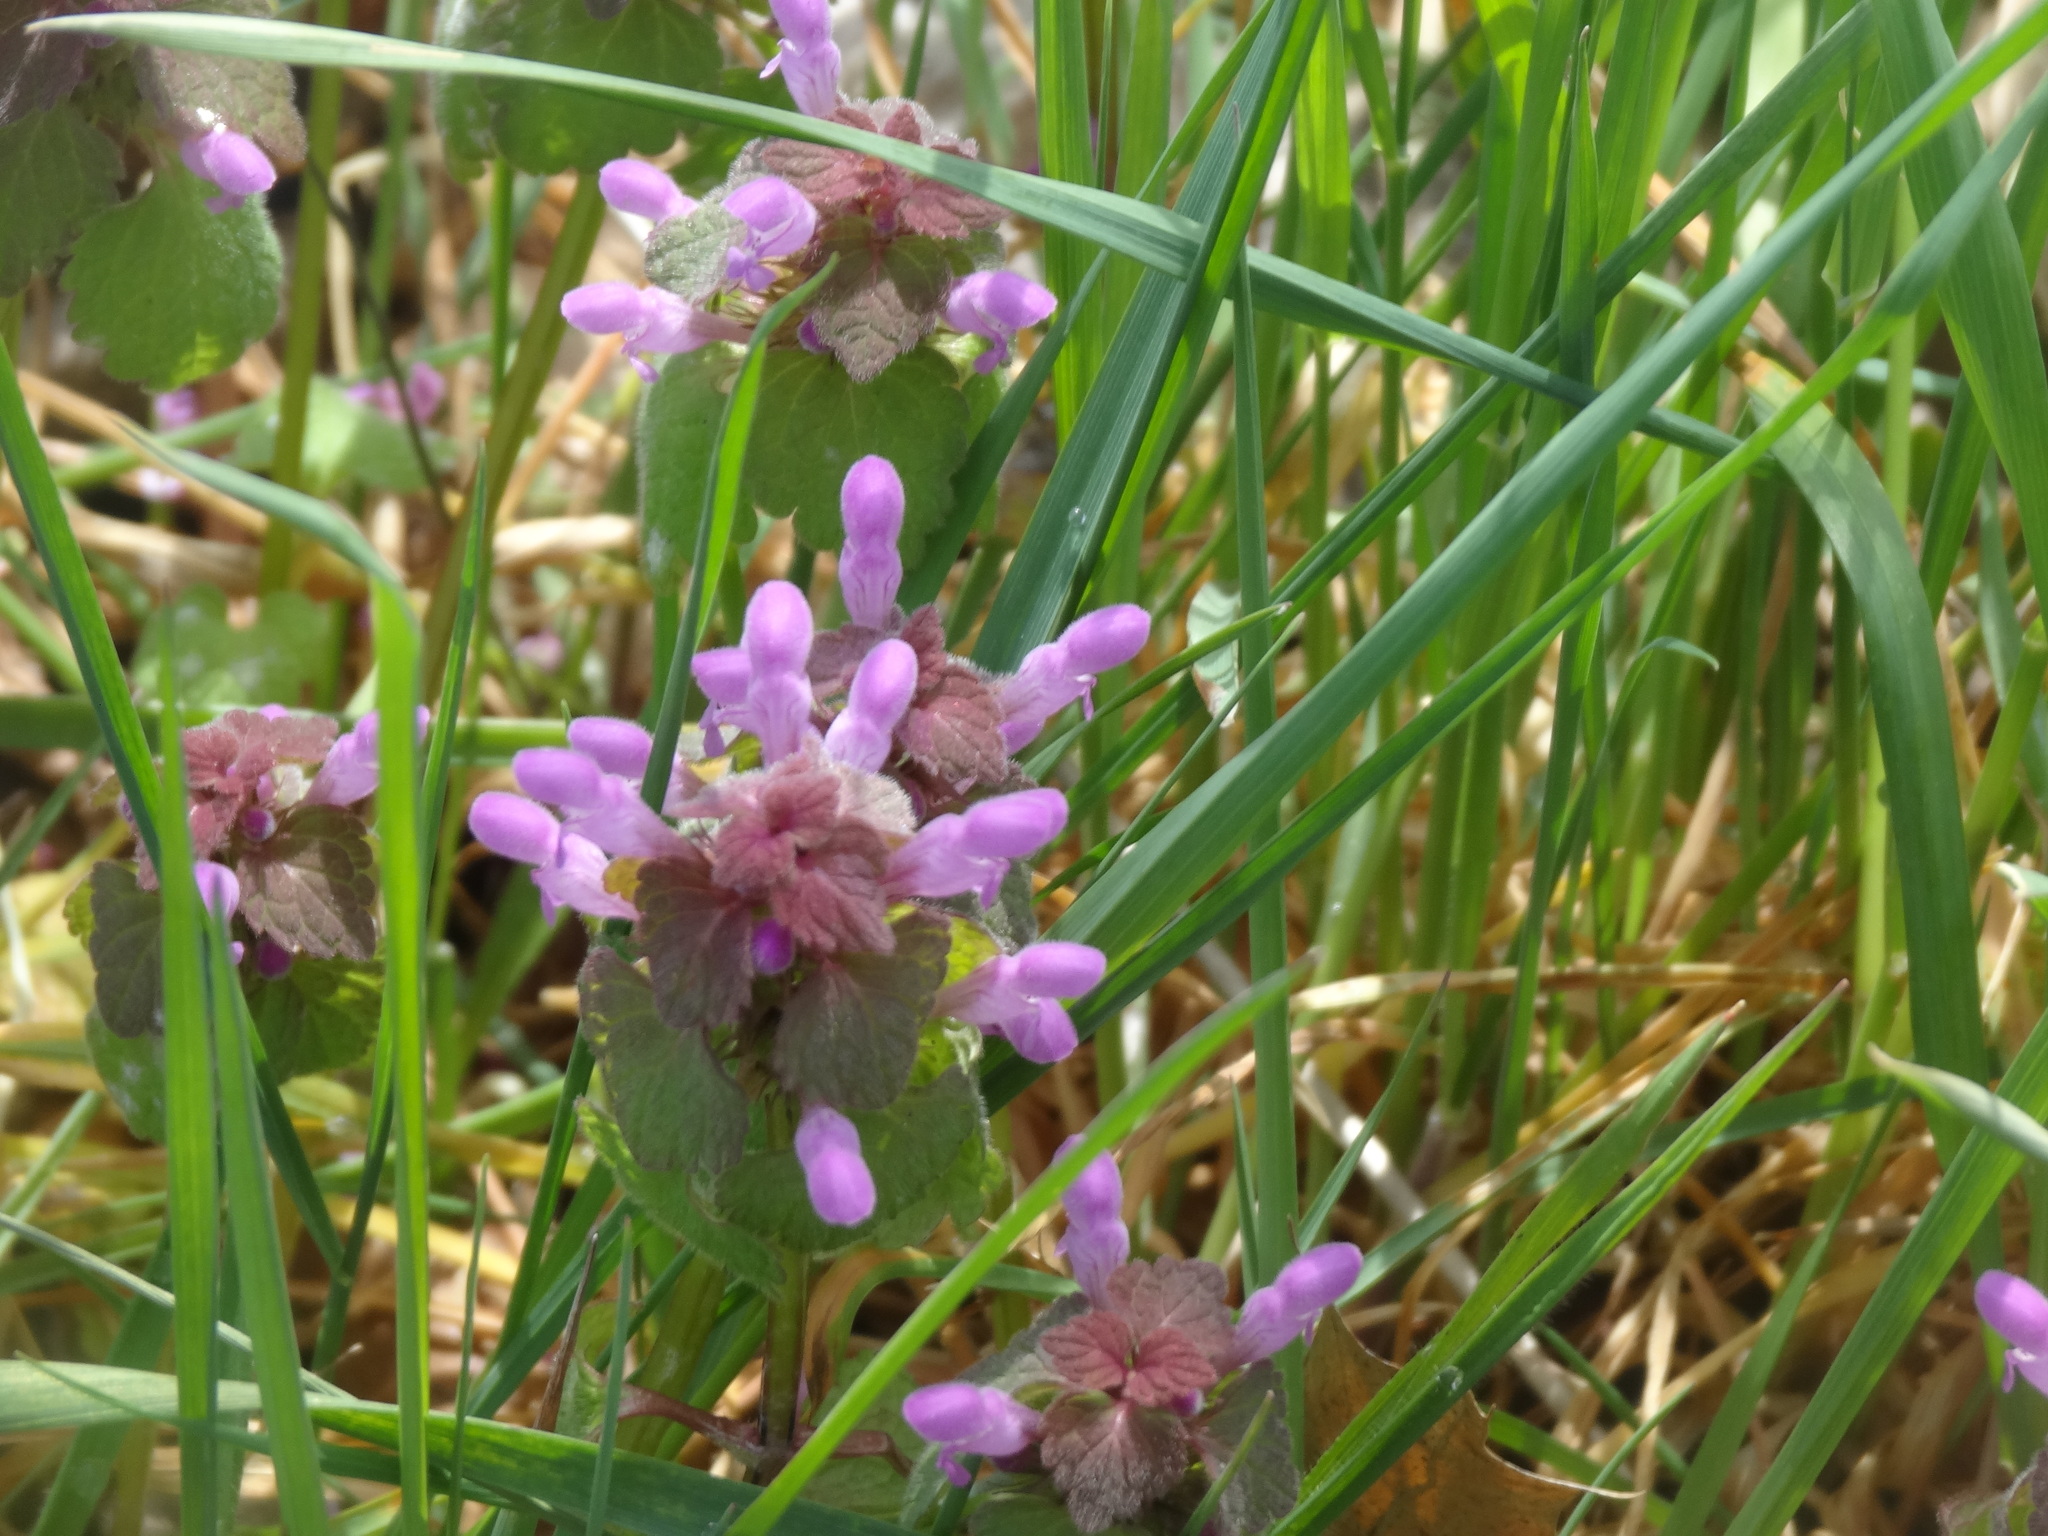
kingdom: Plantae
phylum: Tracheophyta
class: Magnoliopsida
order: Lamiales
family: Lamiaceae
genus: Lamium
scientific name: Lamium purpureum
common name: Red dead-nettle
